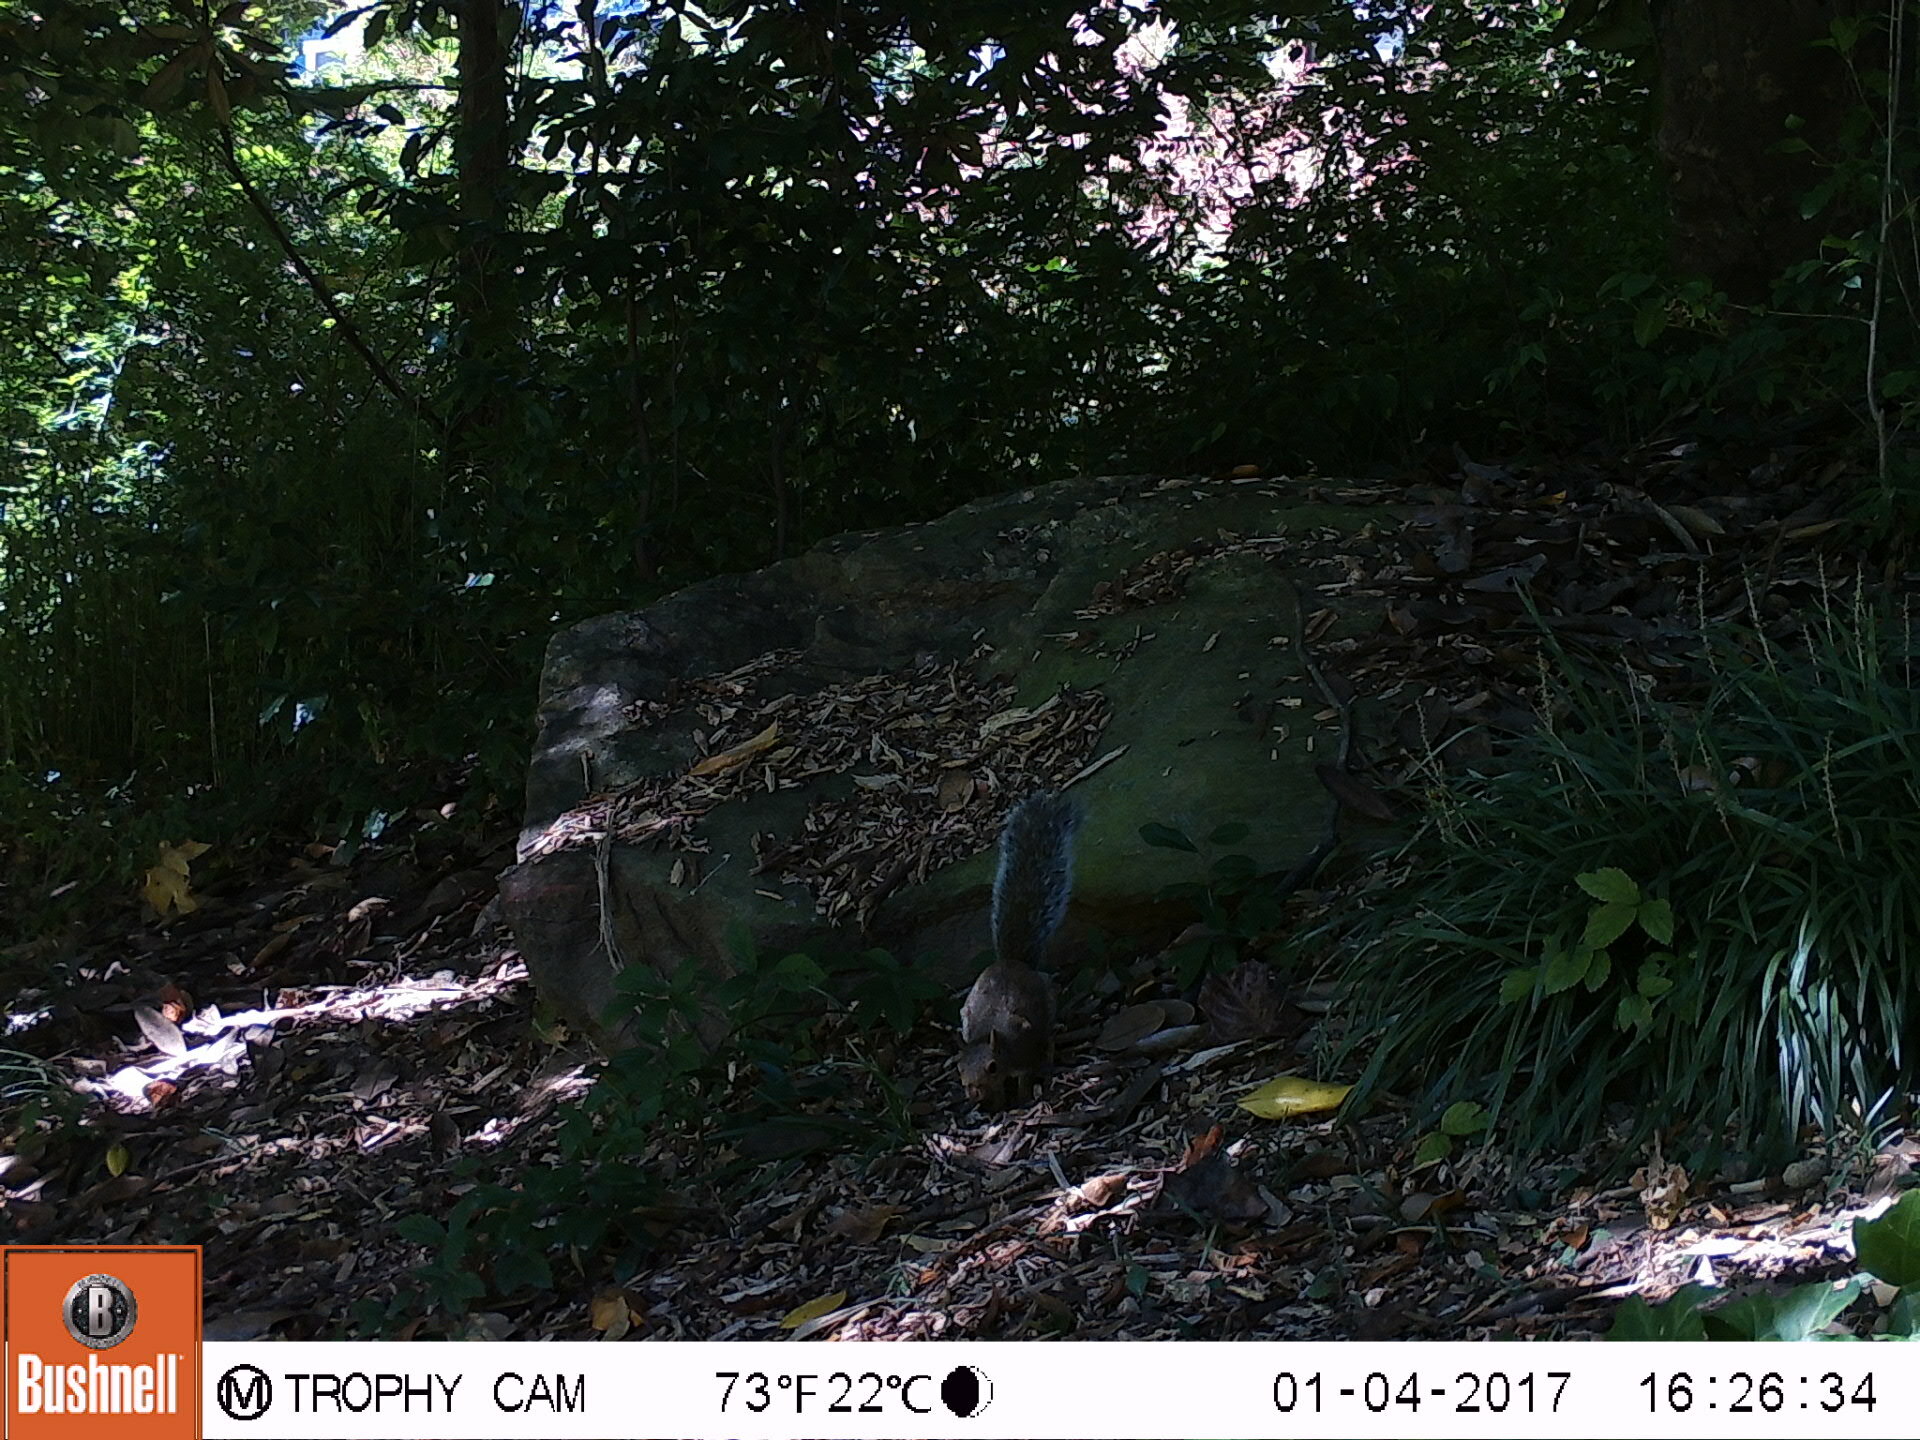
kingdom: Animalia
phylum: Chordata
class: Mammalia
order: Rodentia
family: Sciuridae
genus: Sciurus
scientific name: Sciurus carolinensis
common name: Eastern gray squirrel
